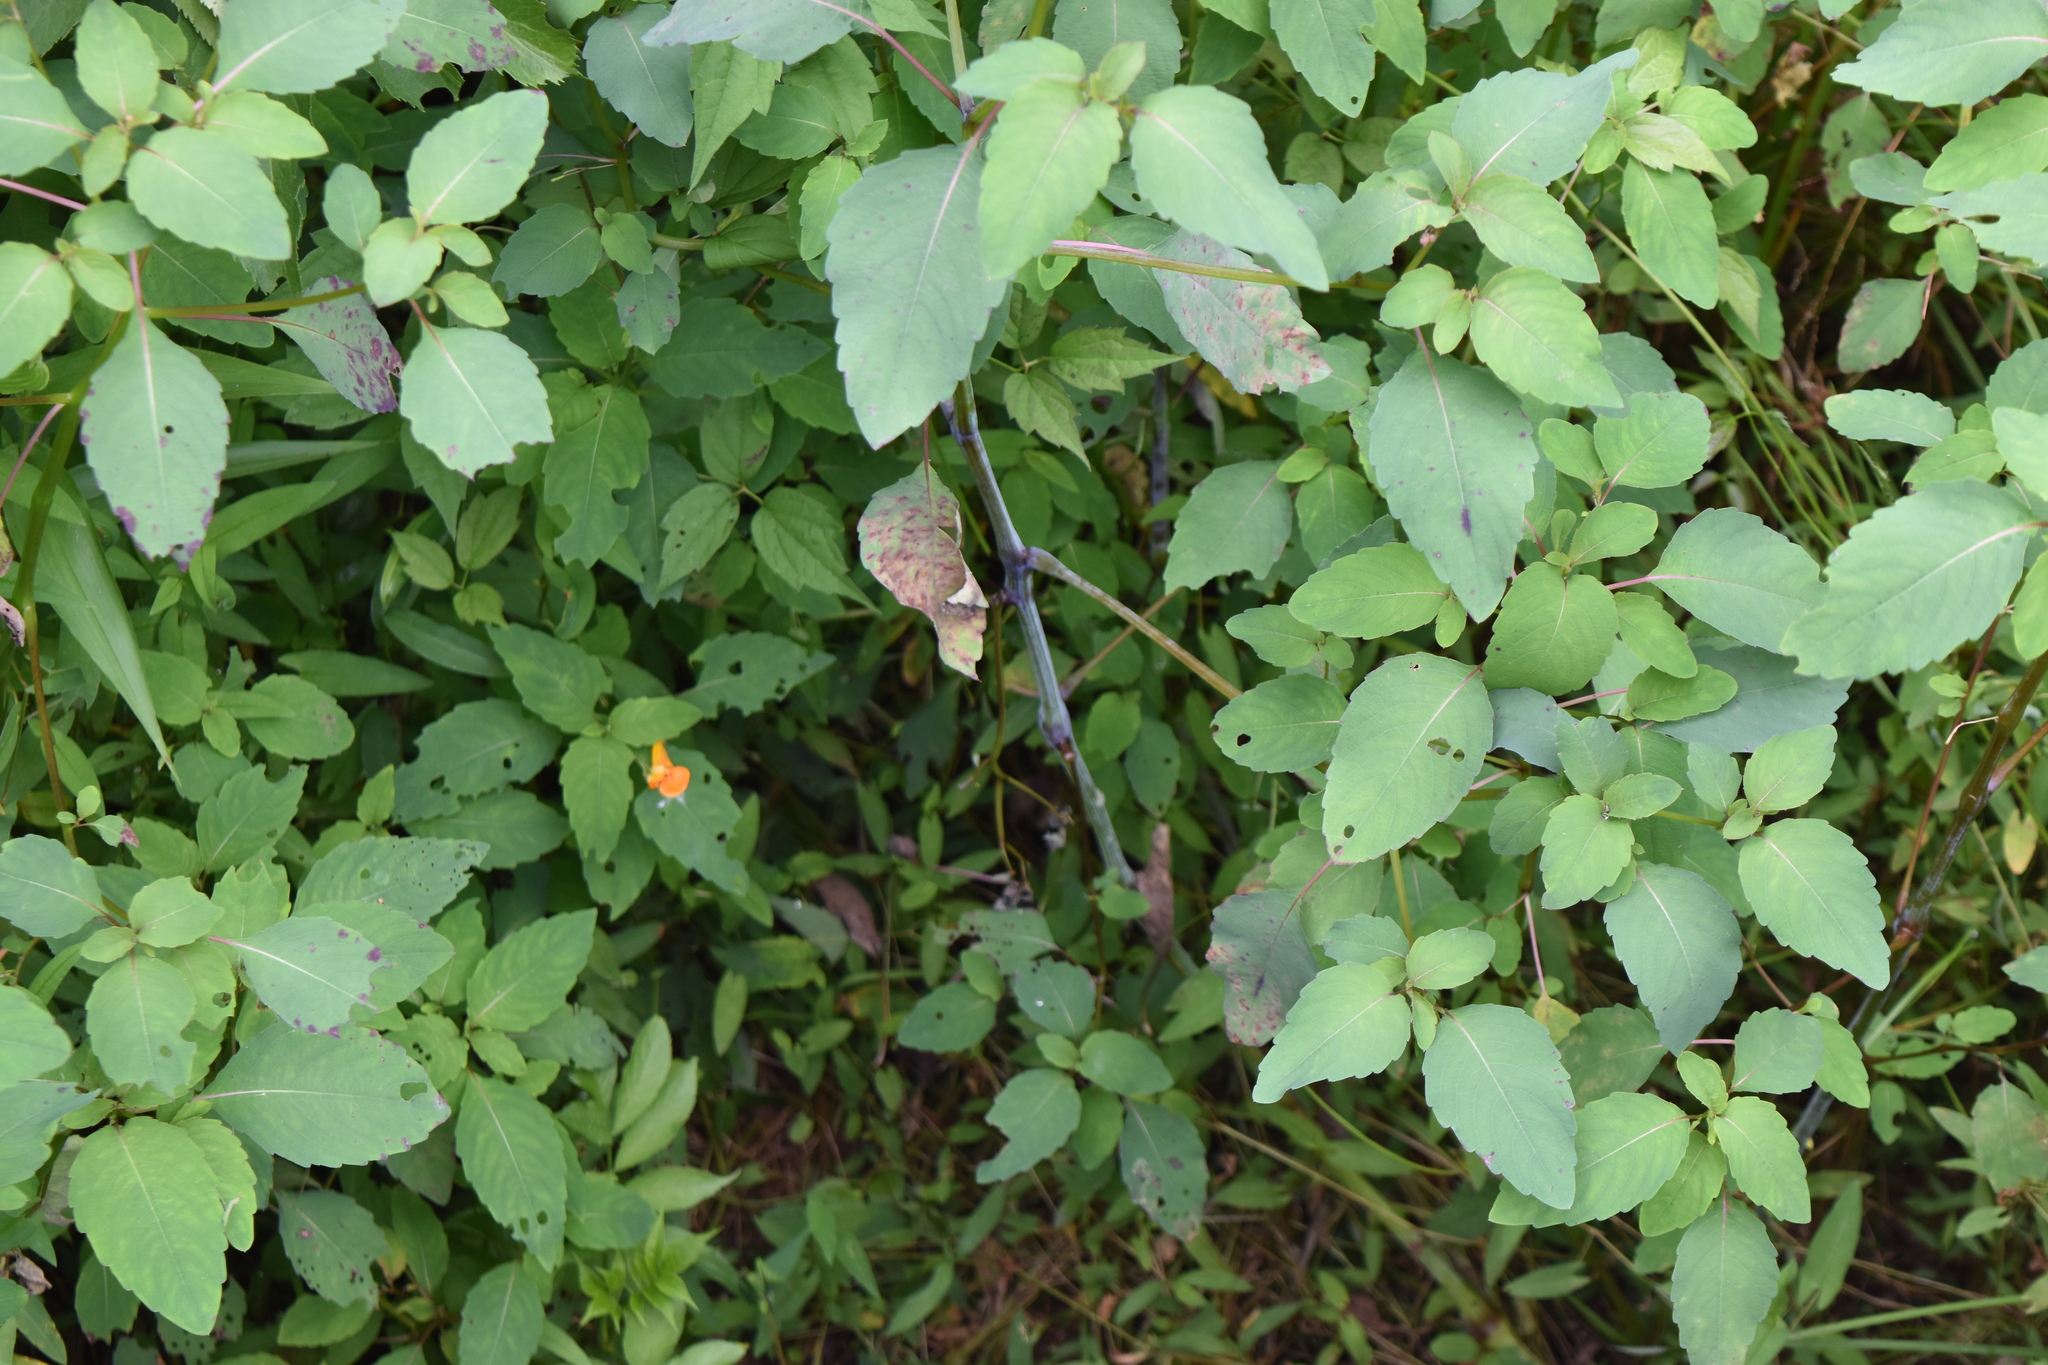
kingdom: Plantae
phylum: Tracheophyta
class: Magnoliopsida
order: Ericales
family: Balsaminaceae
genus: Impatiens
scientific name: Impatiens capensis
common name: Orange balsam
